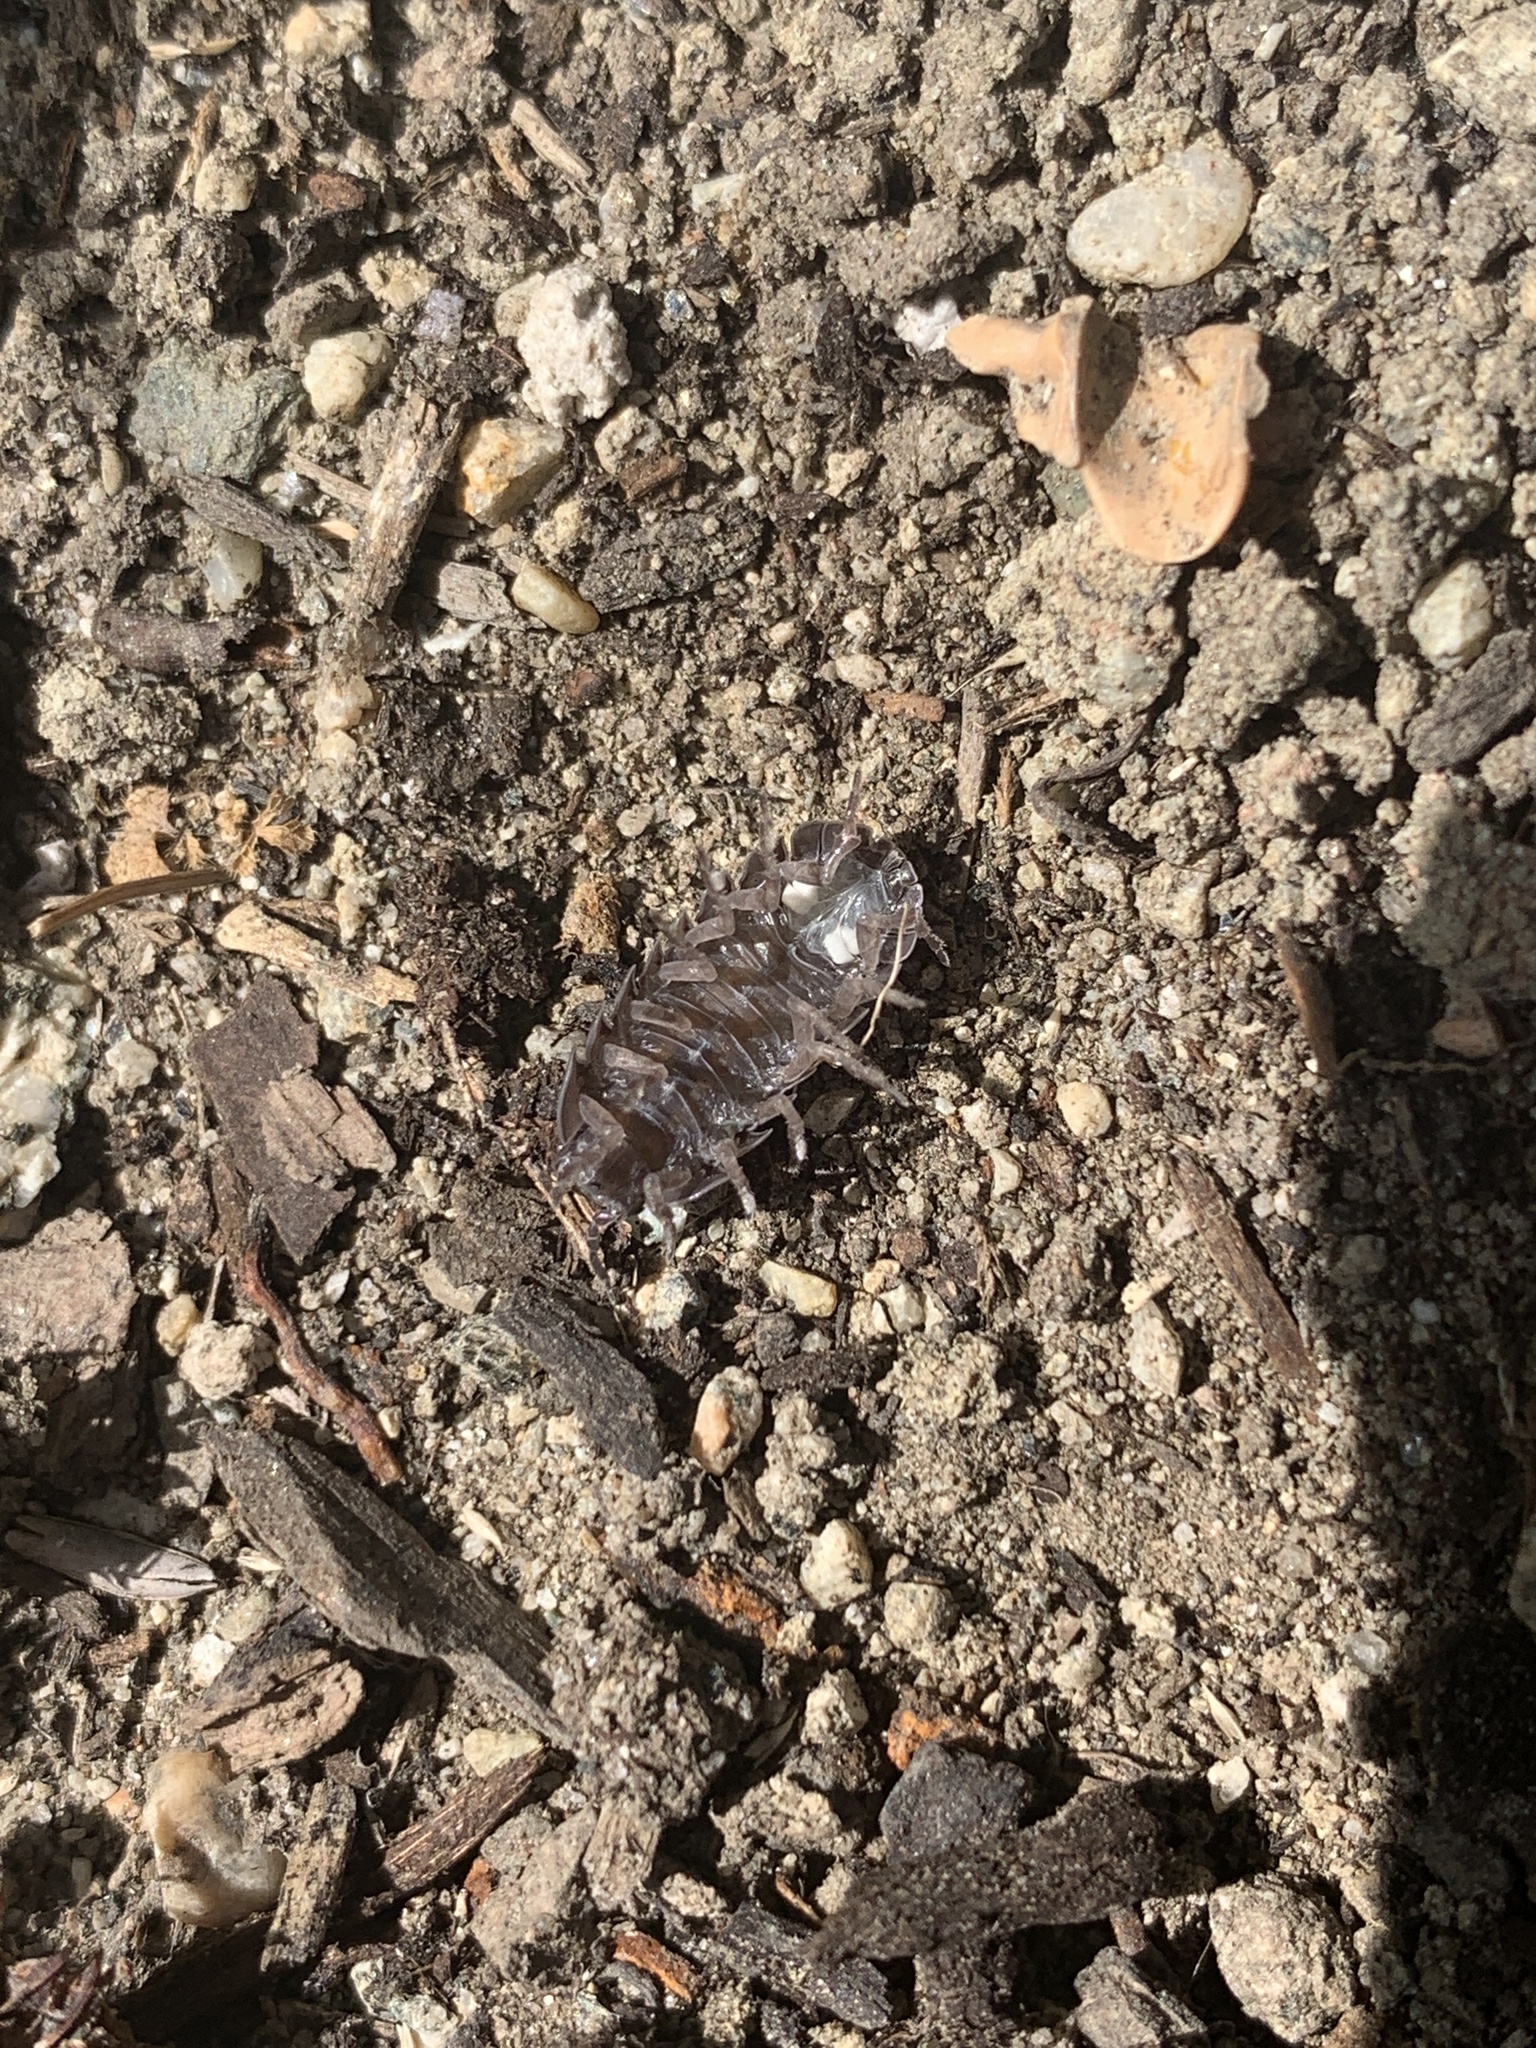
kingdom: Animalia
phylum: Arthropoda
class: Malacostraca
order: Isopoda
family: Armadillidiidae
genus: Armadillidium
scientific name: Armadillidium vulgare
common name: Common pill woodlouse
